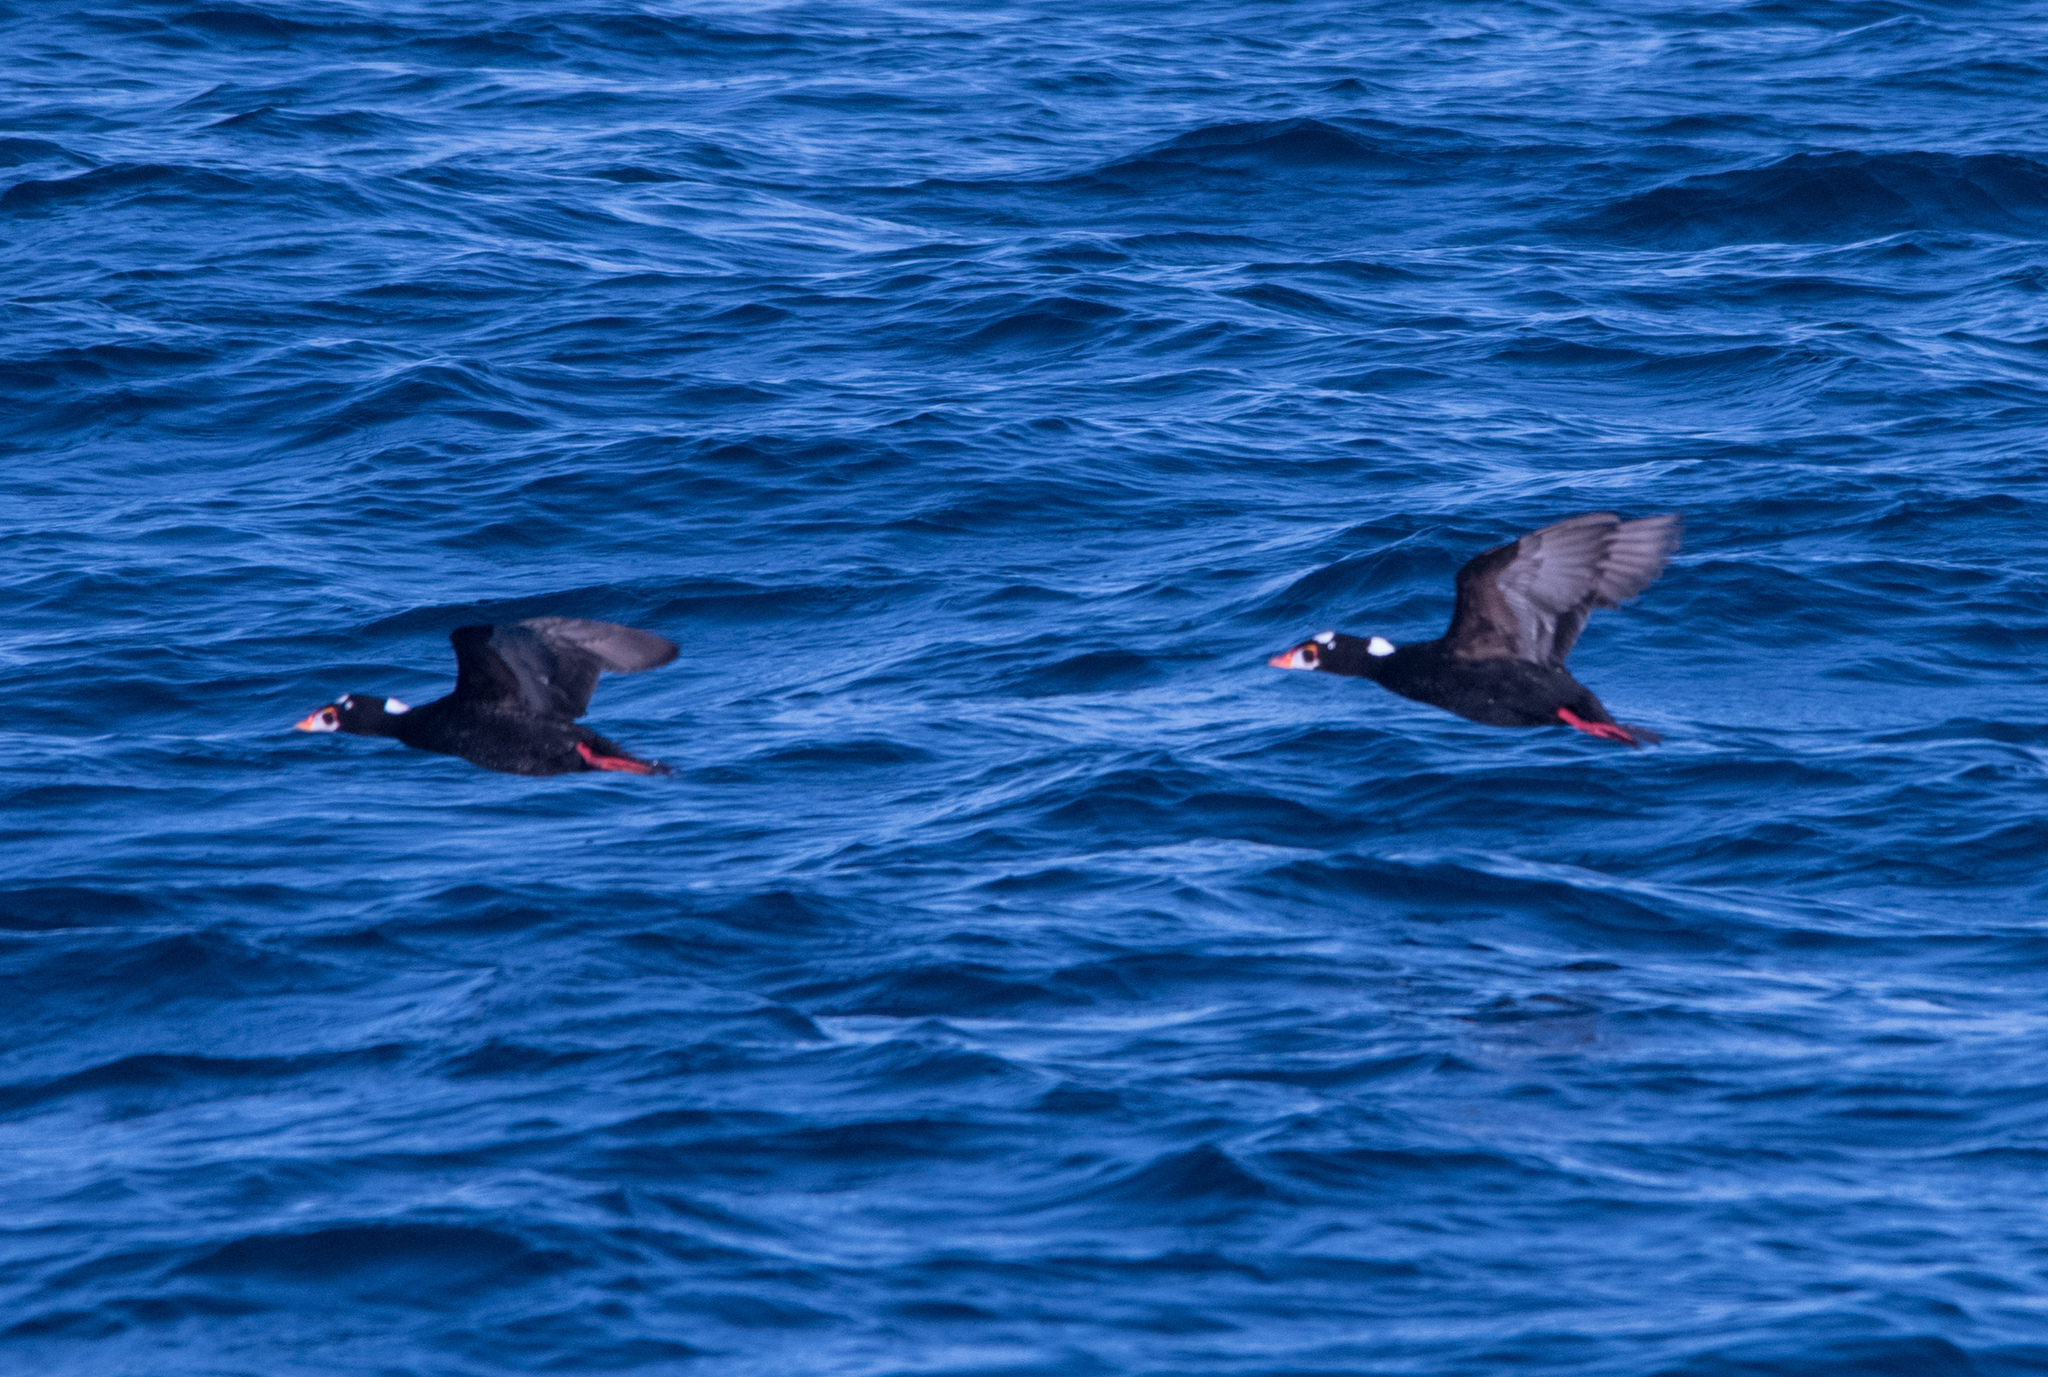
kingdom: Animalia
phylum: Chordata
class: Aves
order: Anseriformes
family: Anatidae
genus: Melanitta
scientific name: Melanitta perspicillata
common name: Surf scoter
